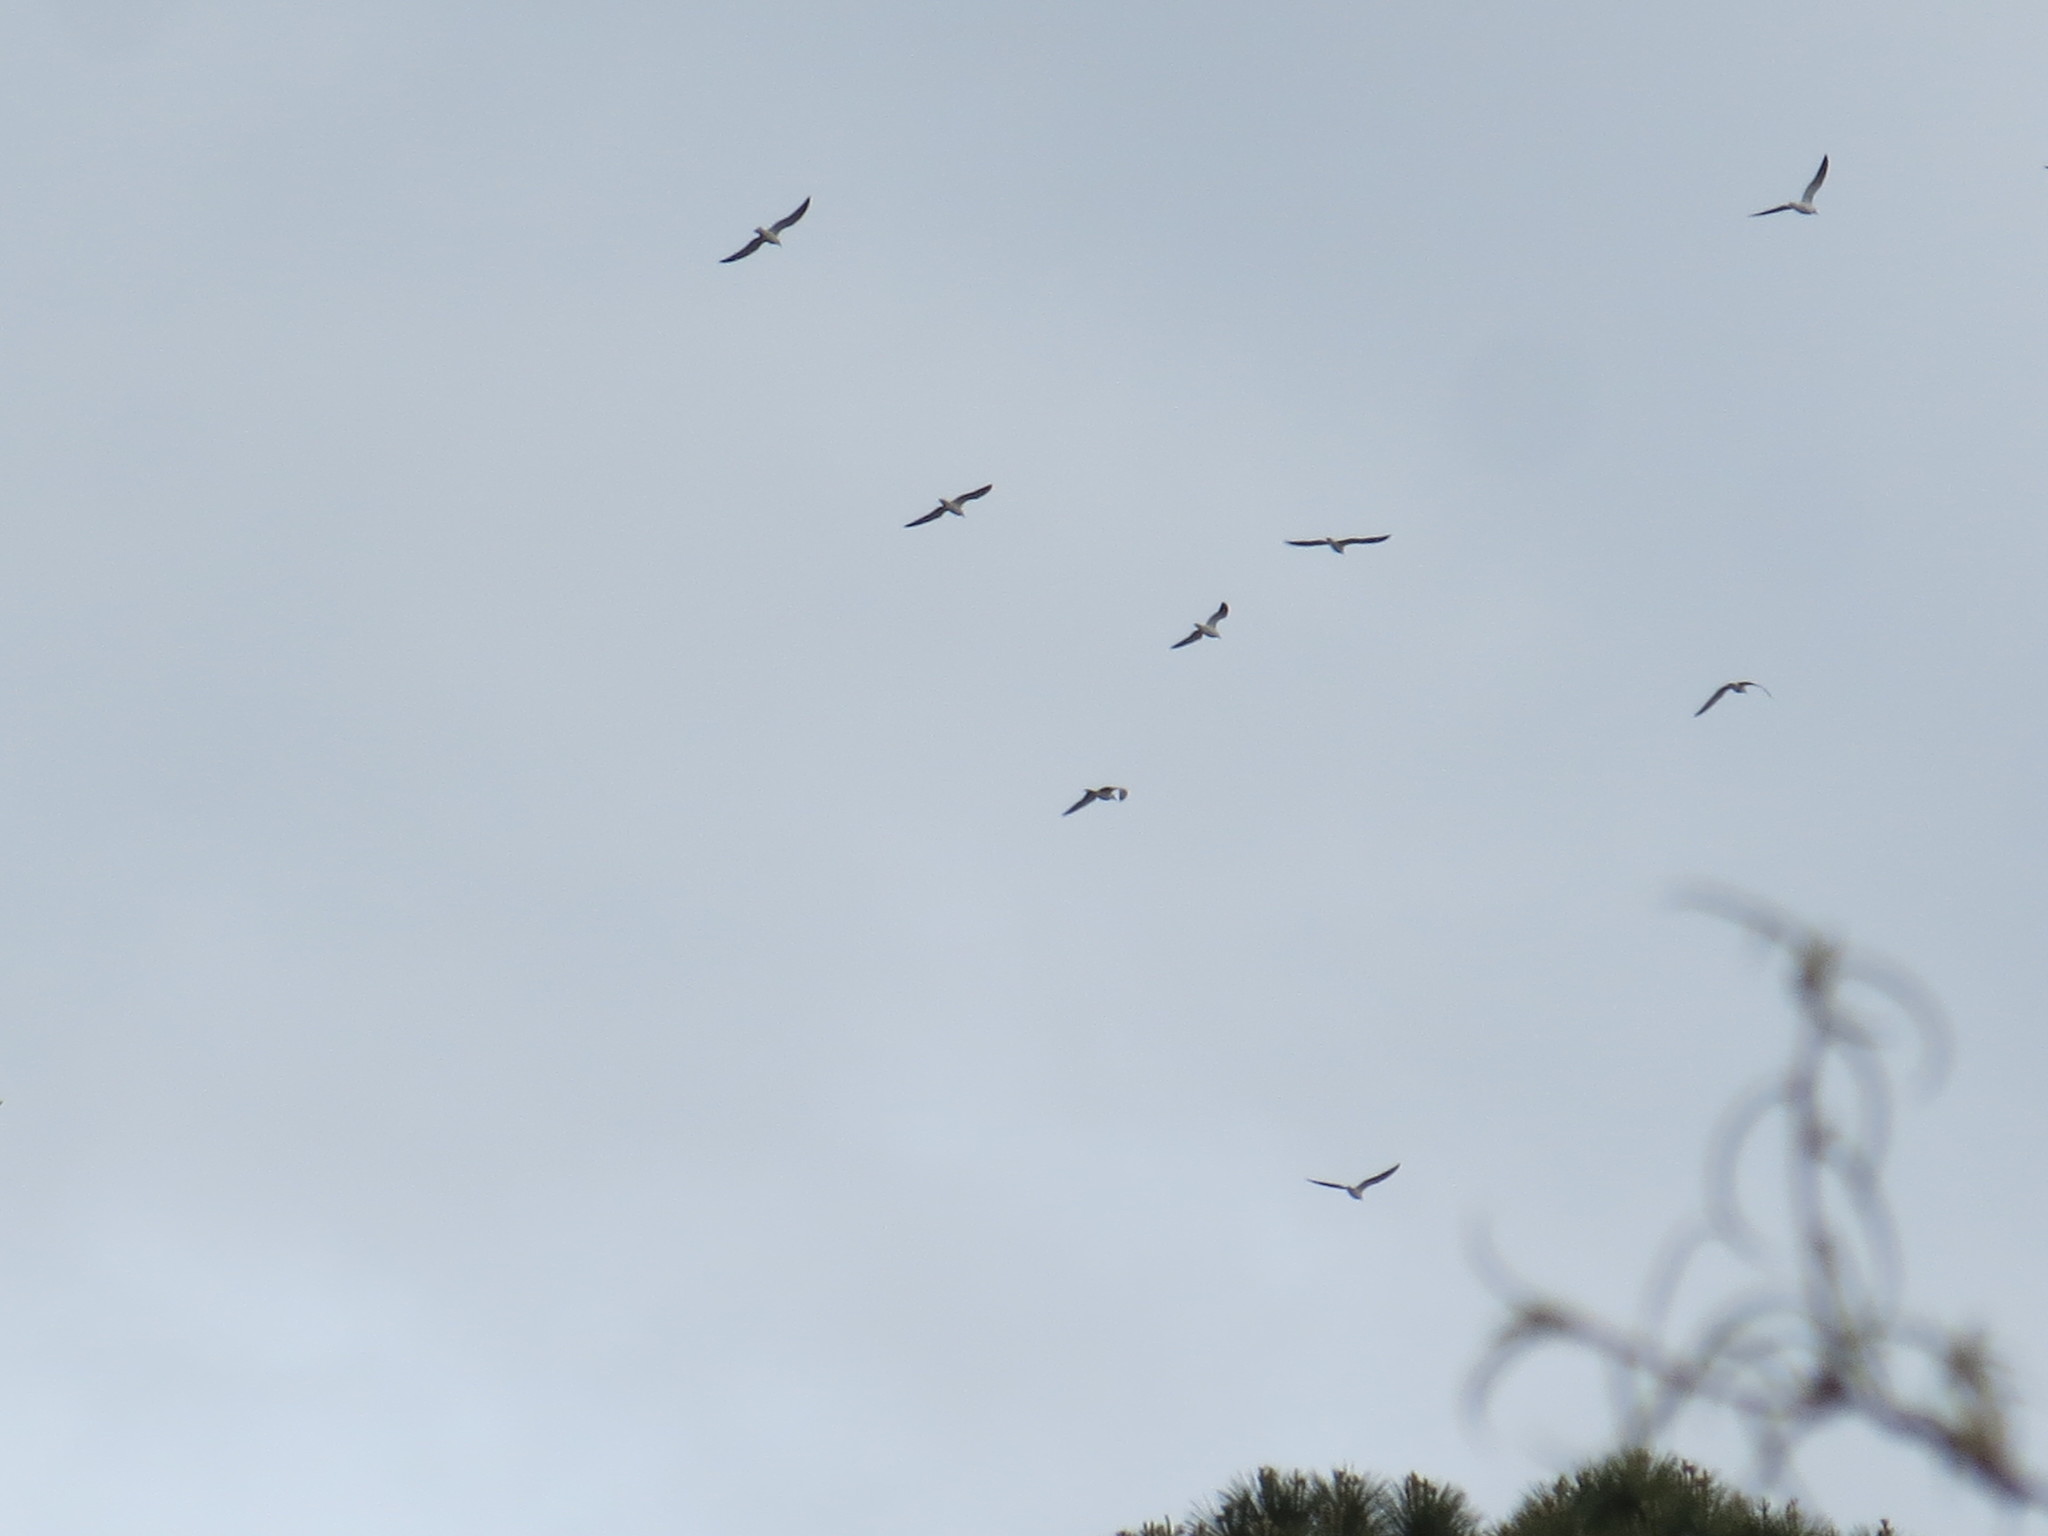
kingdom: Animalia
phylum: Chordata
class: Aves
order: Charadriiformes
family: Laridae
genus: Leucophaeus
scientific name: Leucophaeus atricilla
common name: Laughing gull
